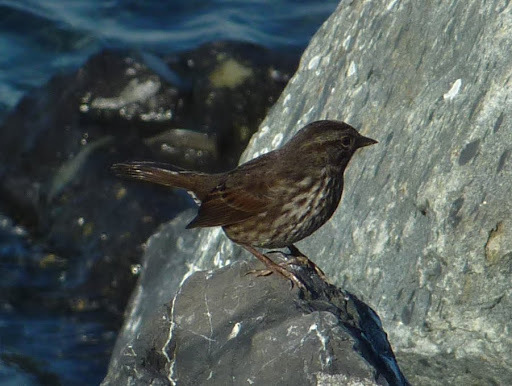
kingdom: Animalia
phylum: Chordata
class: Aves
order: Passeriformes
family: Passerellidae
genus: Melospiza
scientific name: Melospiza melodia
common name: Song sparrow
